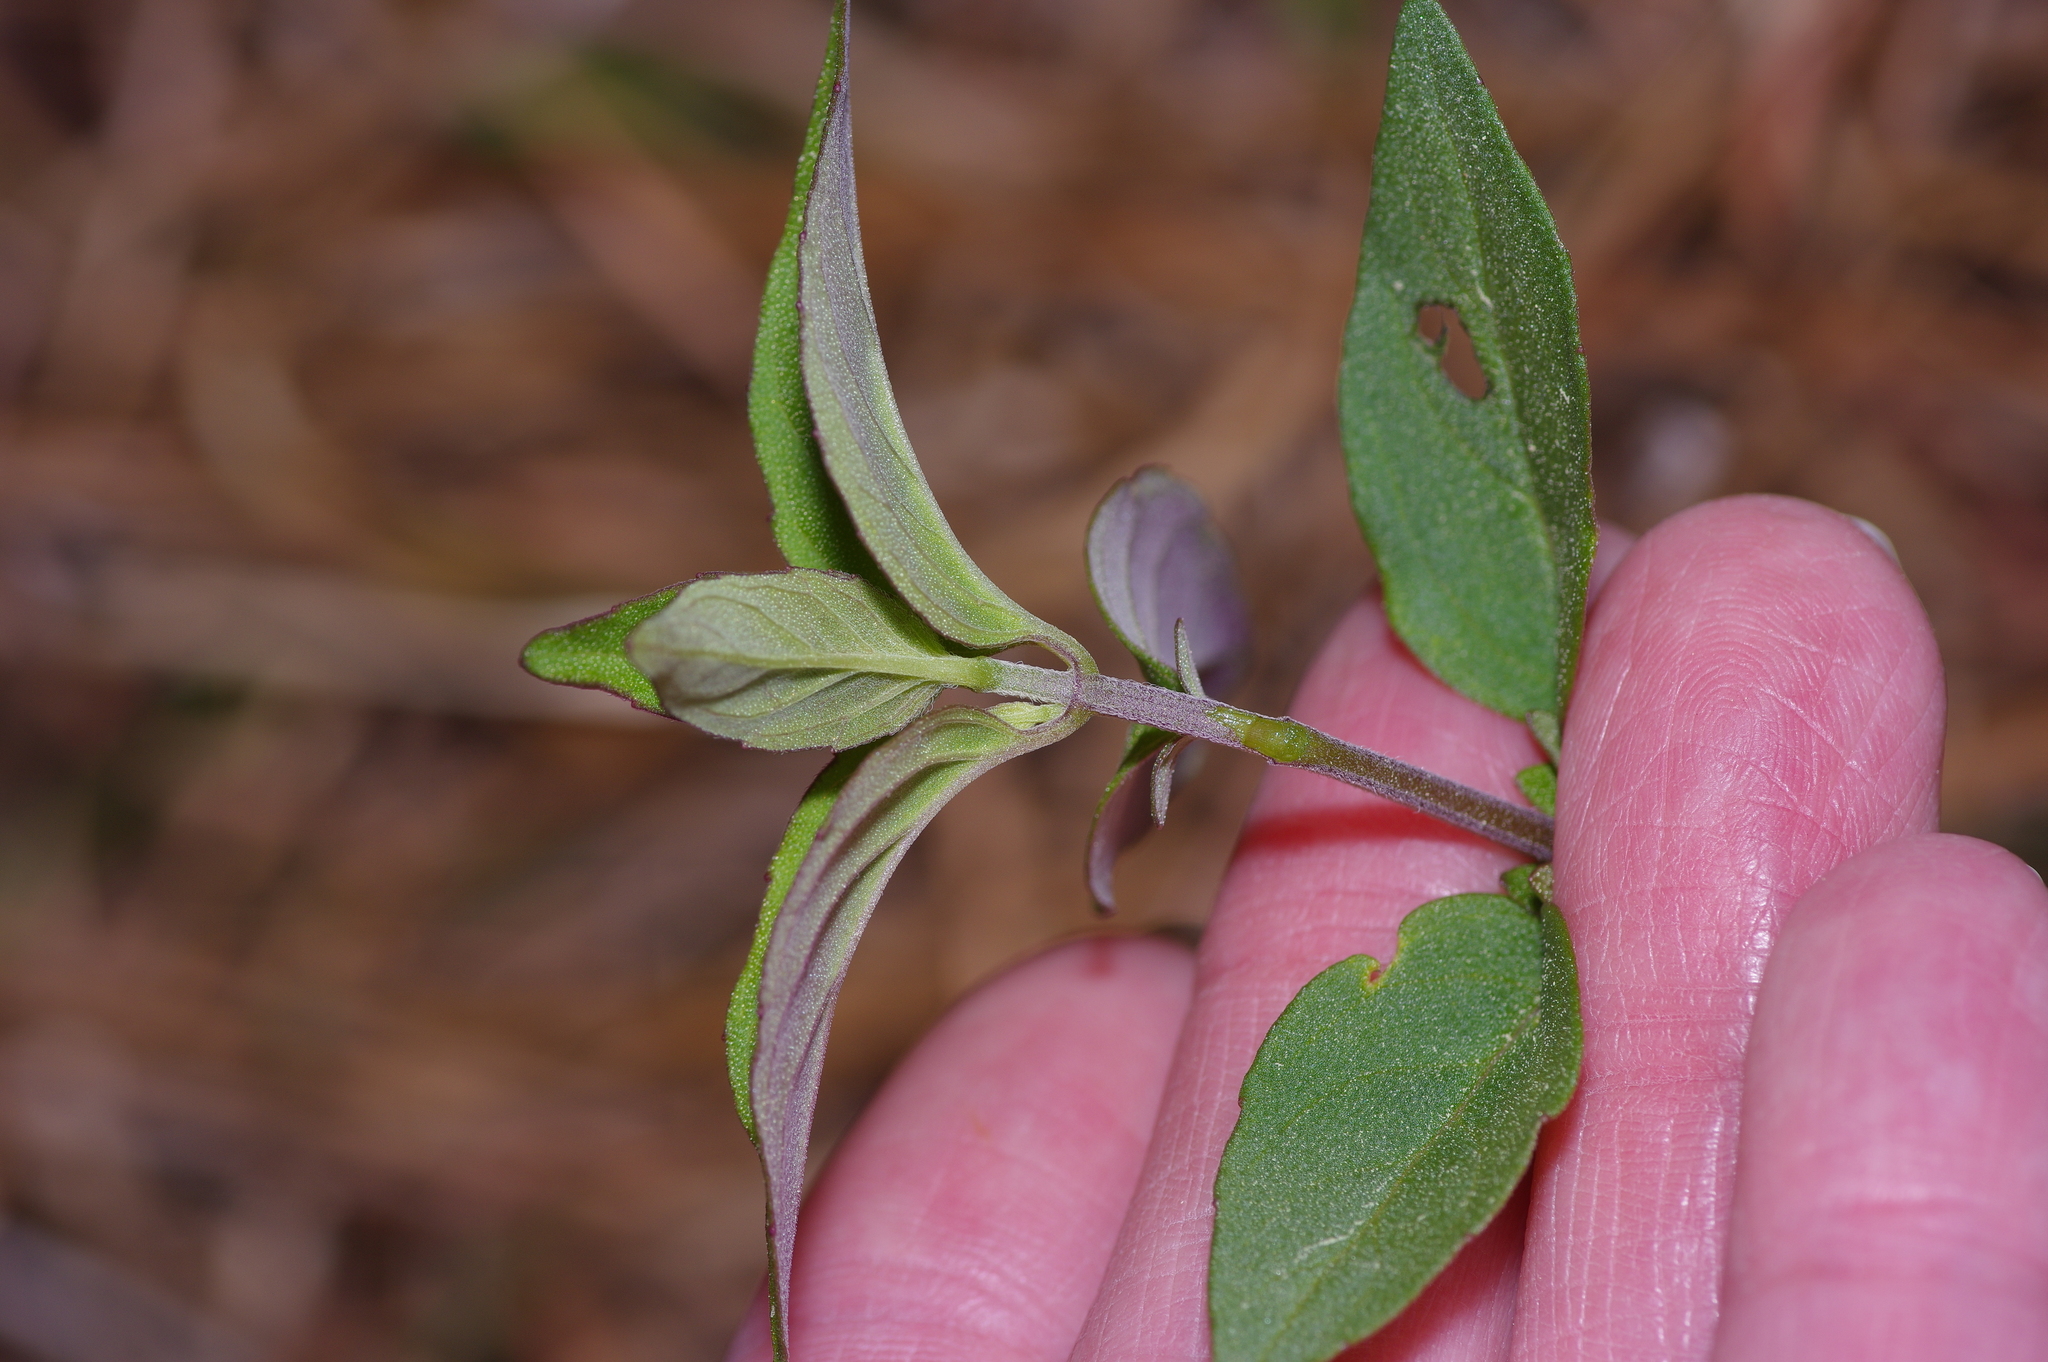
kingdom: Plantae
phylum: Tracheophyta
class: Magnoliopsida
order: Lamiales
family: Lamiaceae
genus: Pycnanthemum
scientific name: Pycnanthemum muticum
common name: Blunt mountain-mint
